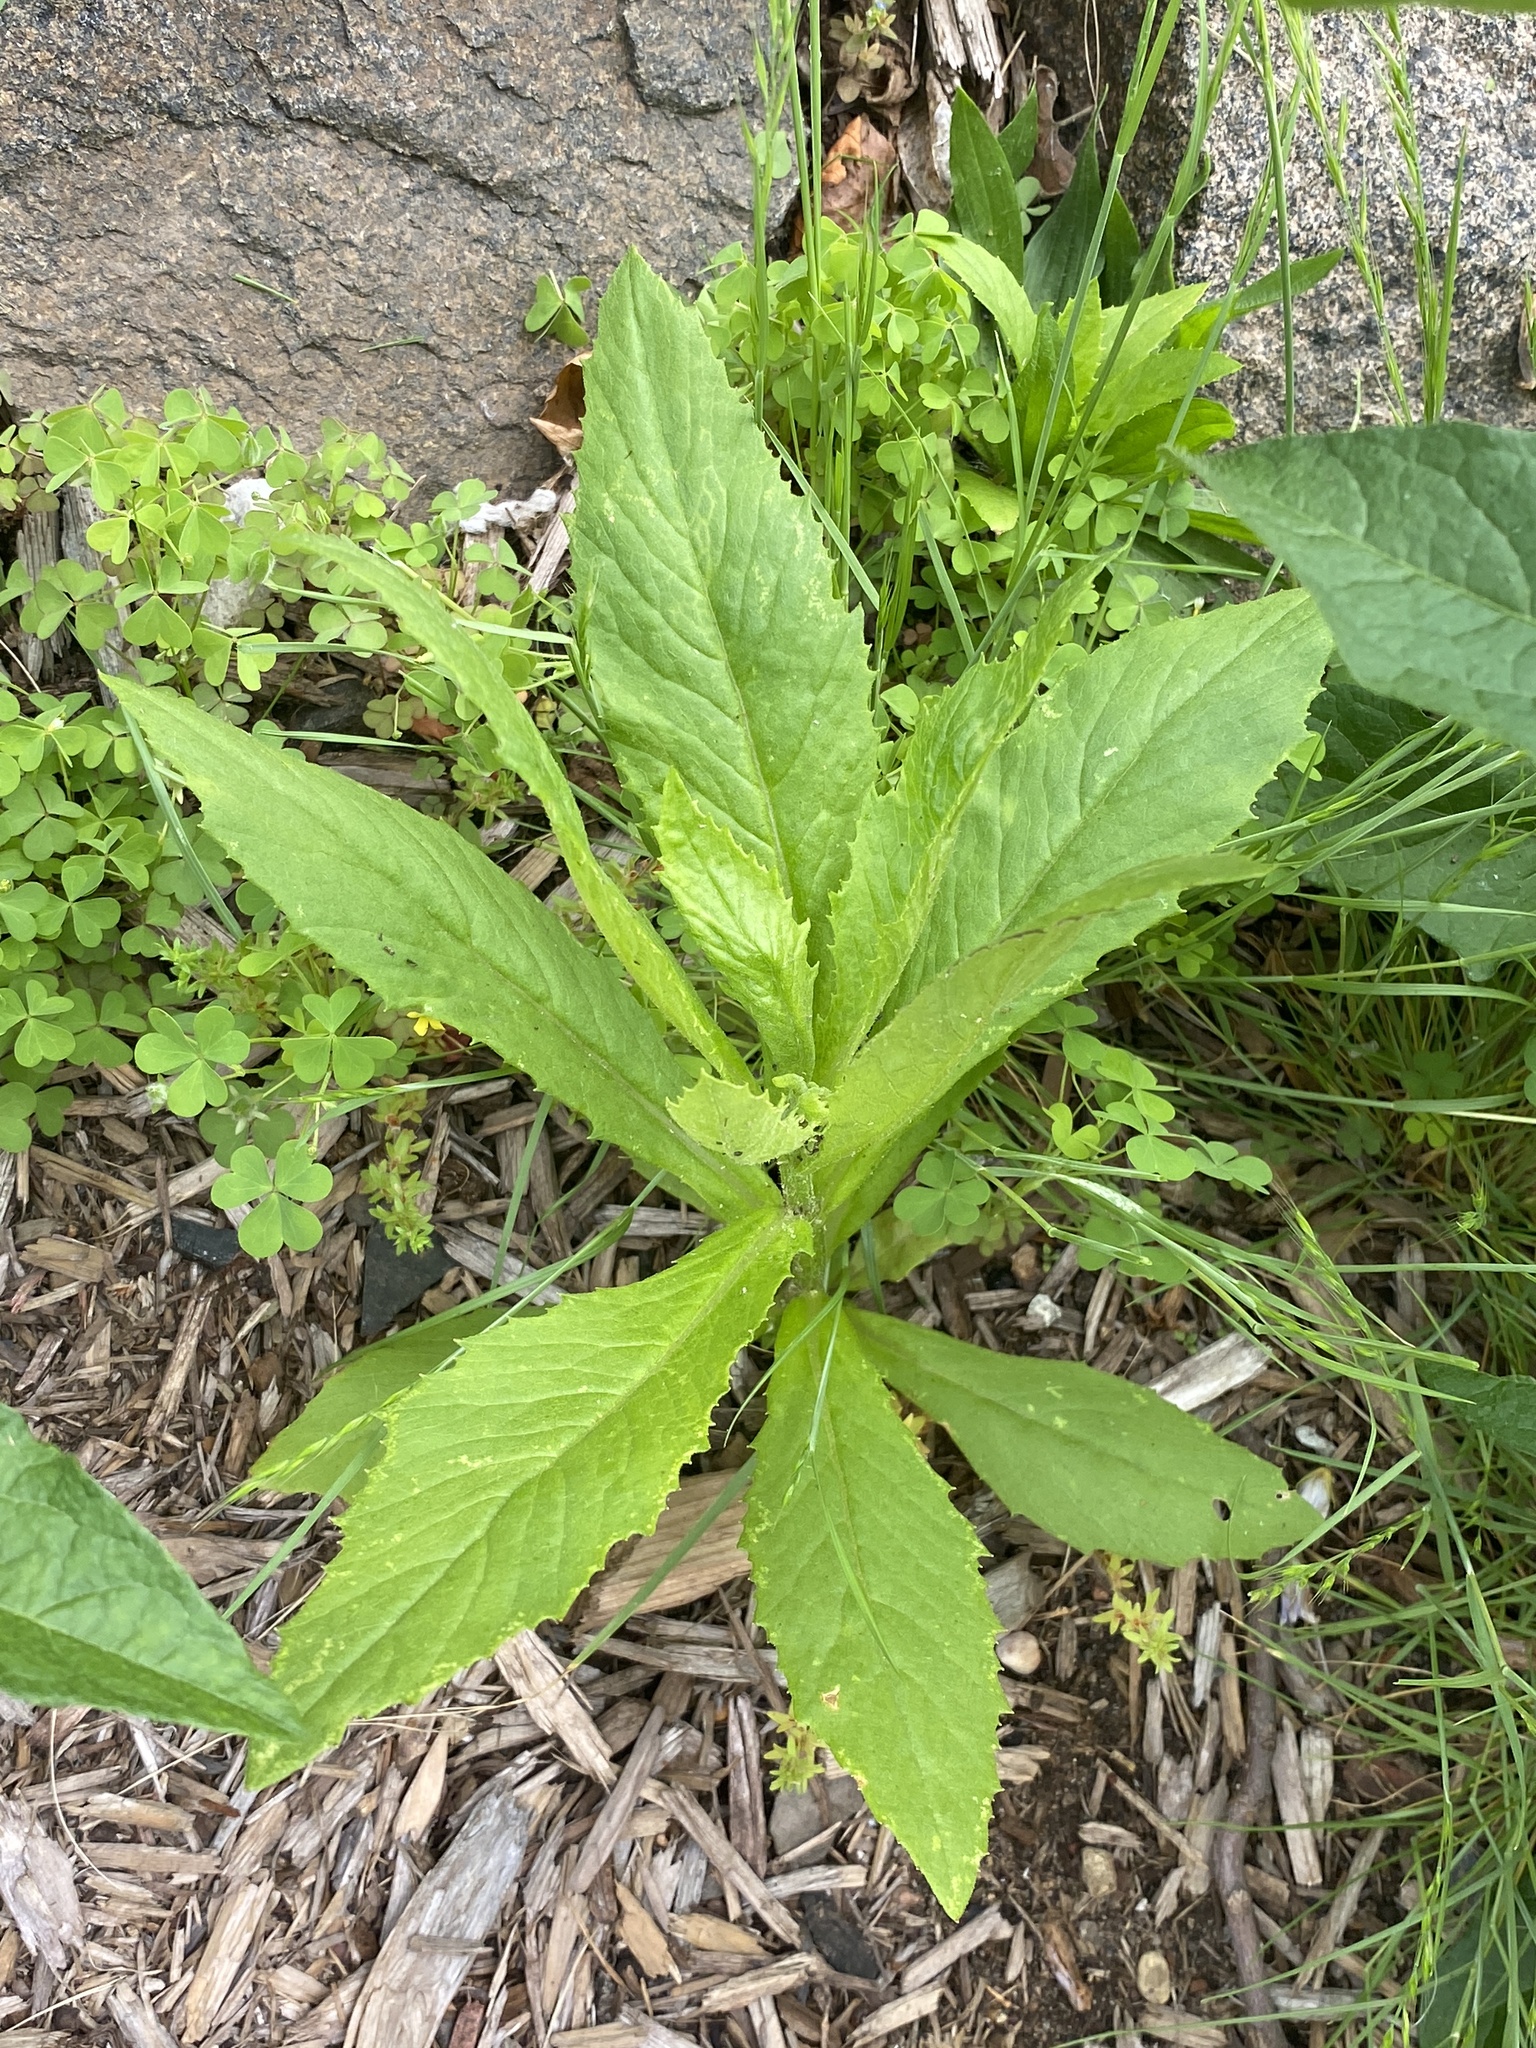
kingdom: Plantae
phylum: Tracheophyta
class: Magnoliopsida
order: Asterales
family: Asteraceae
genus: Erechtites
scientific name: Erechtites hieraciifolius
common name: American burnweed
